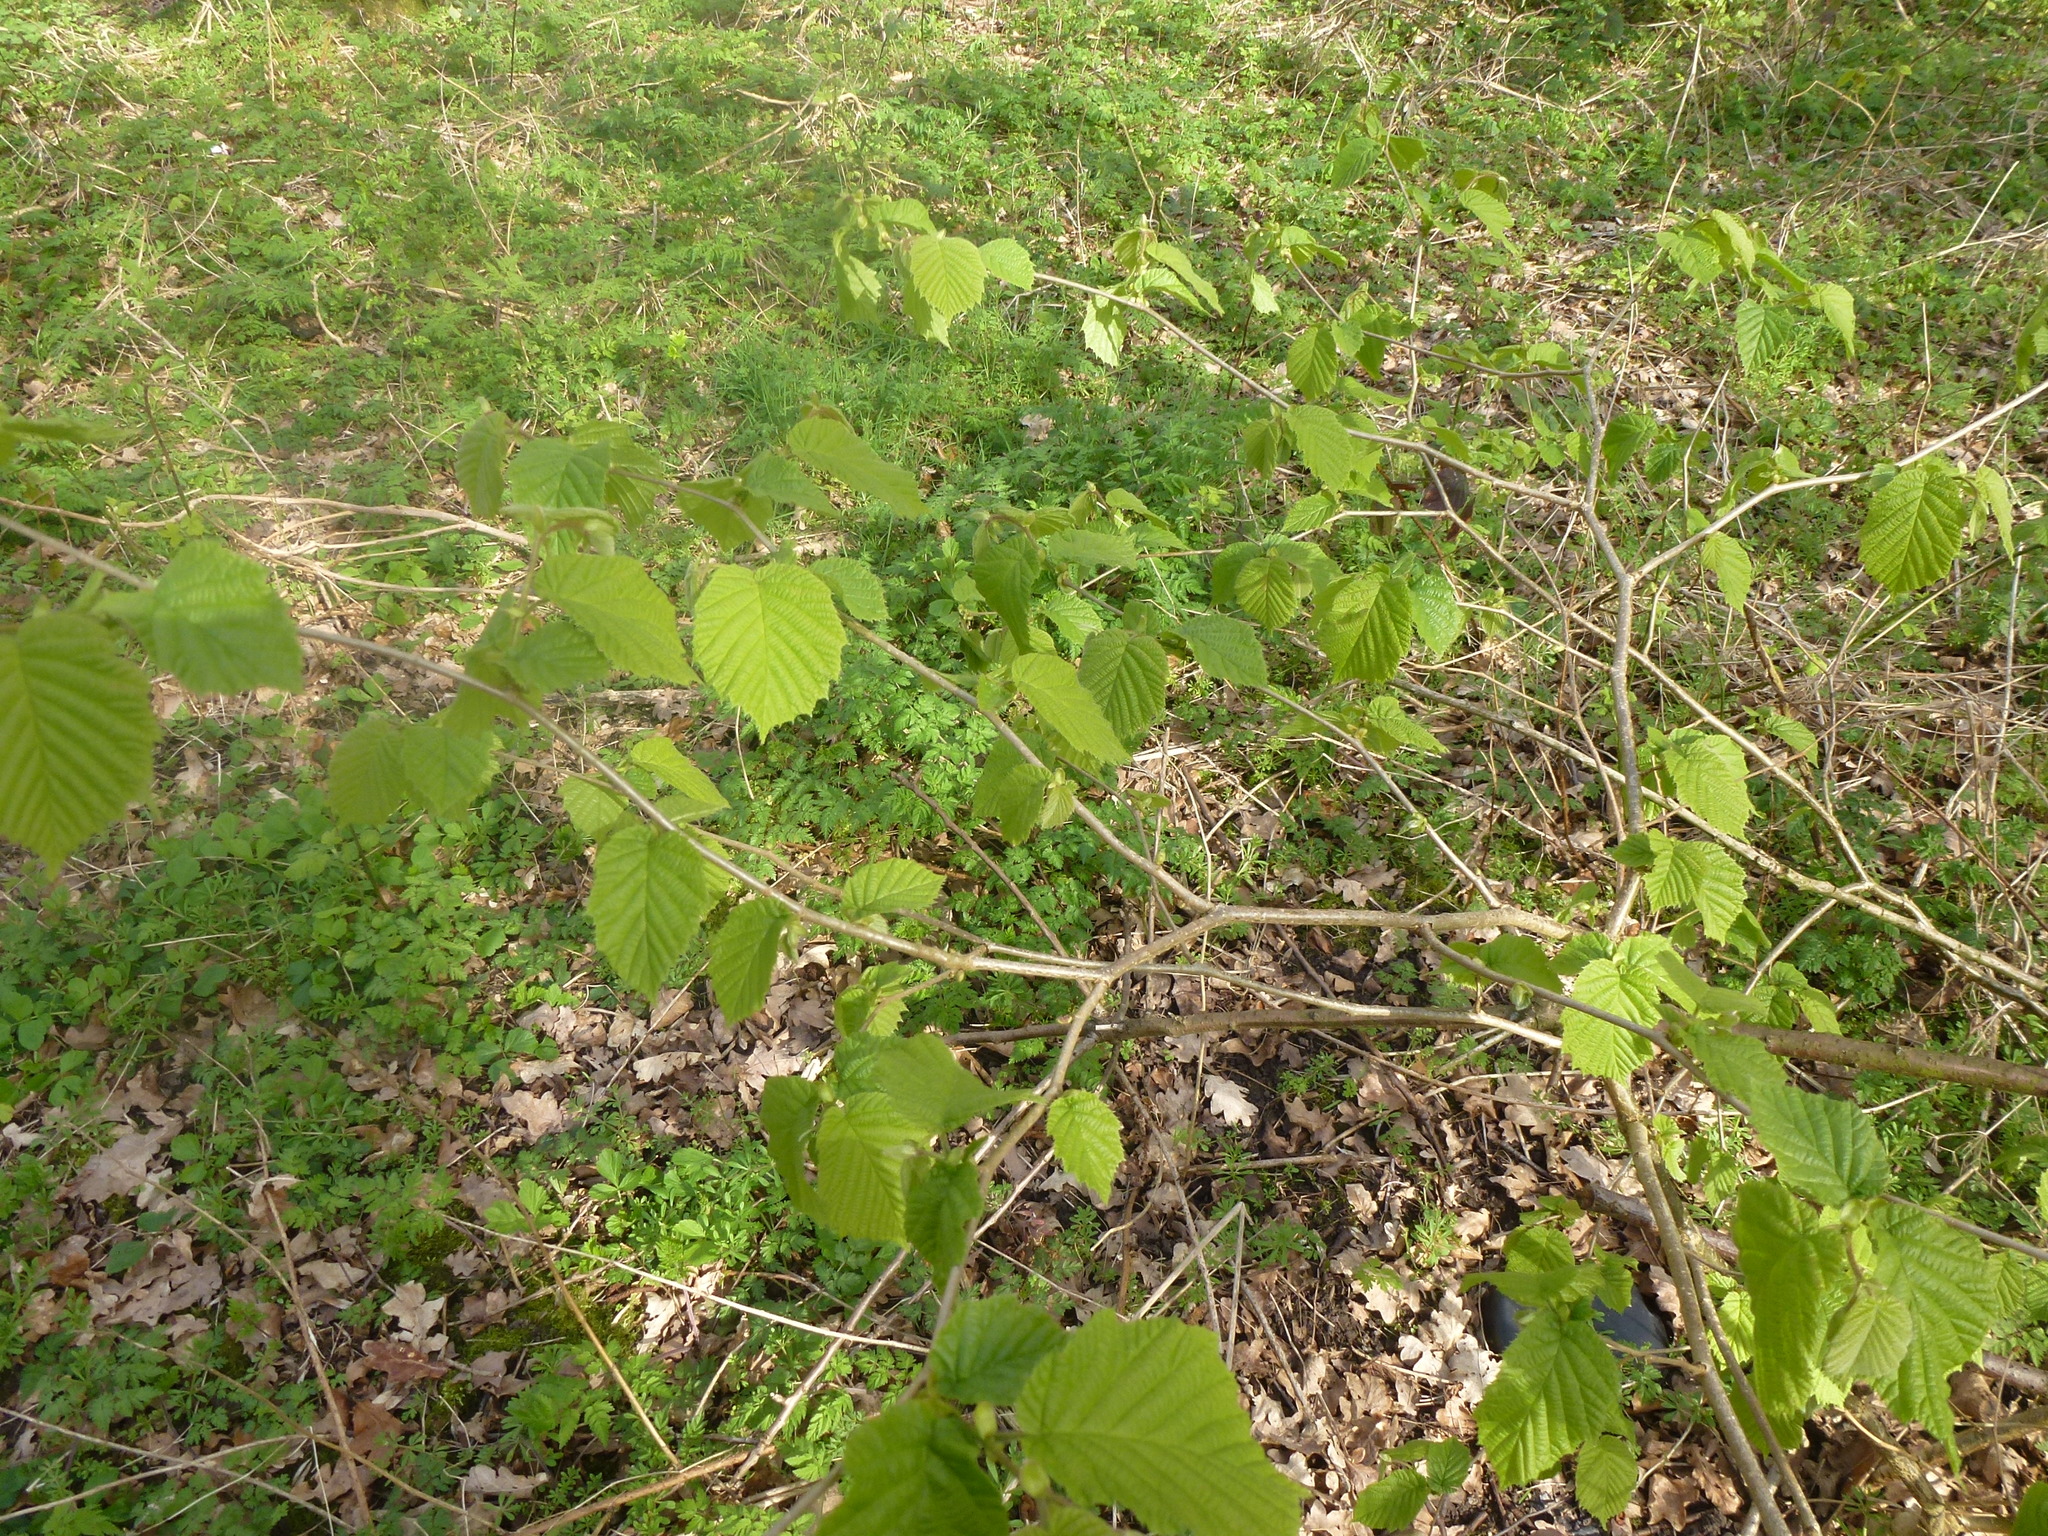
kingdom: Plantae
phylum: Tracheophyta
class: Magnoliopsida
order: Fagales
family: Betulaceae
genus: Corylus
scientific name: Corylus avellana
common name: European hazel
